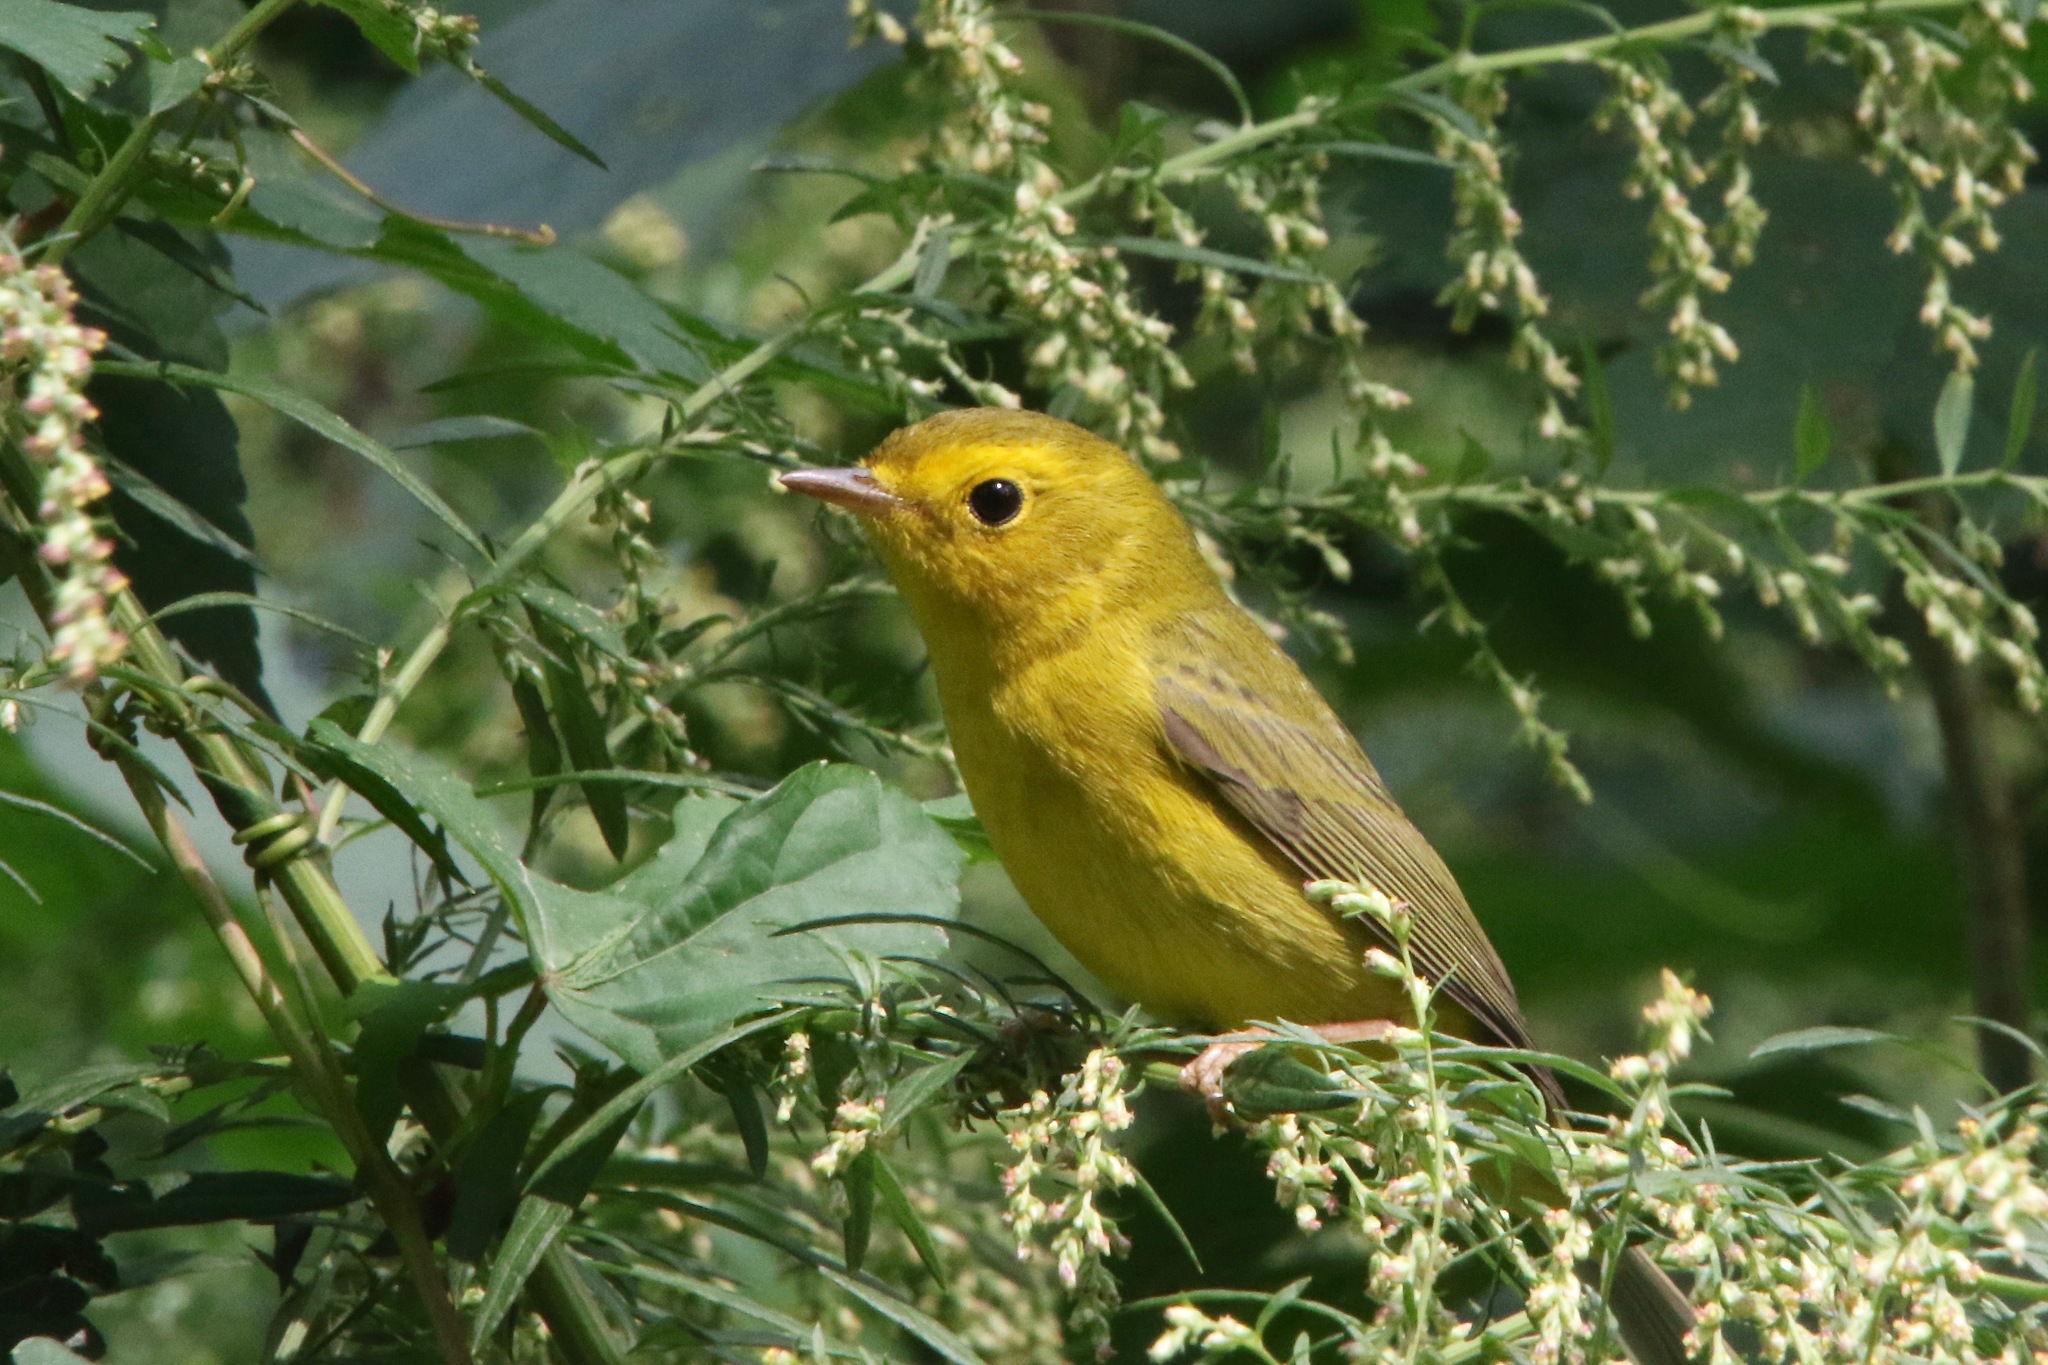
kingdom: Animalia
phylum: Chordata
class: Aves
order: Passeriformes
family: Parulidae
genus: Cardellina
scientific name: Cardellina pusilla
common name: Wilson's warbler
